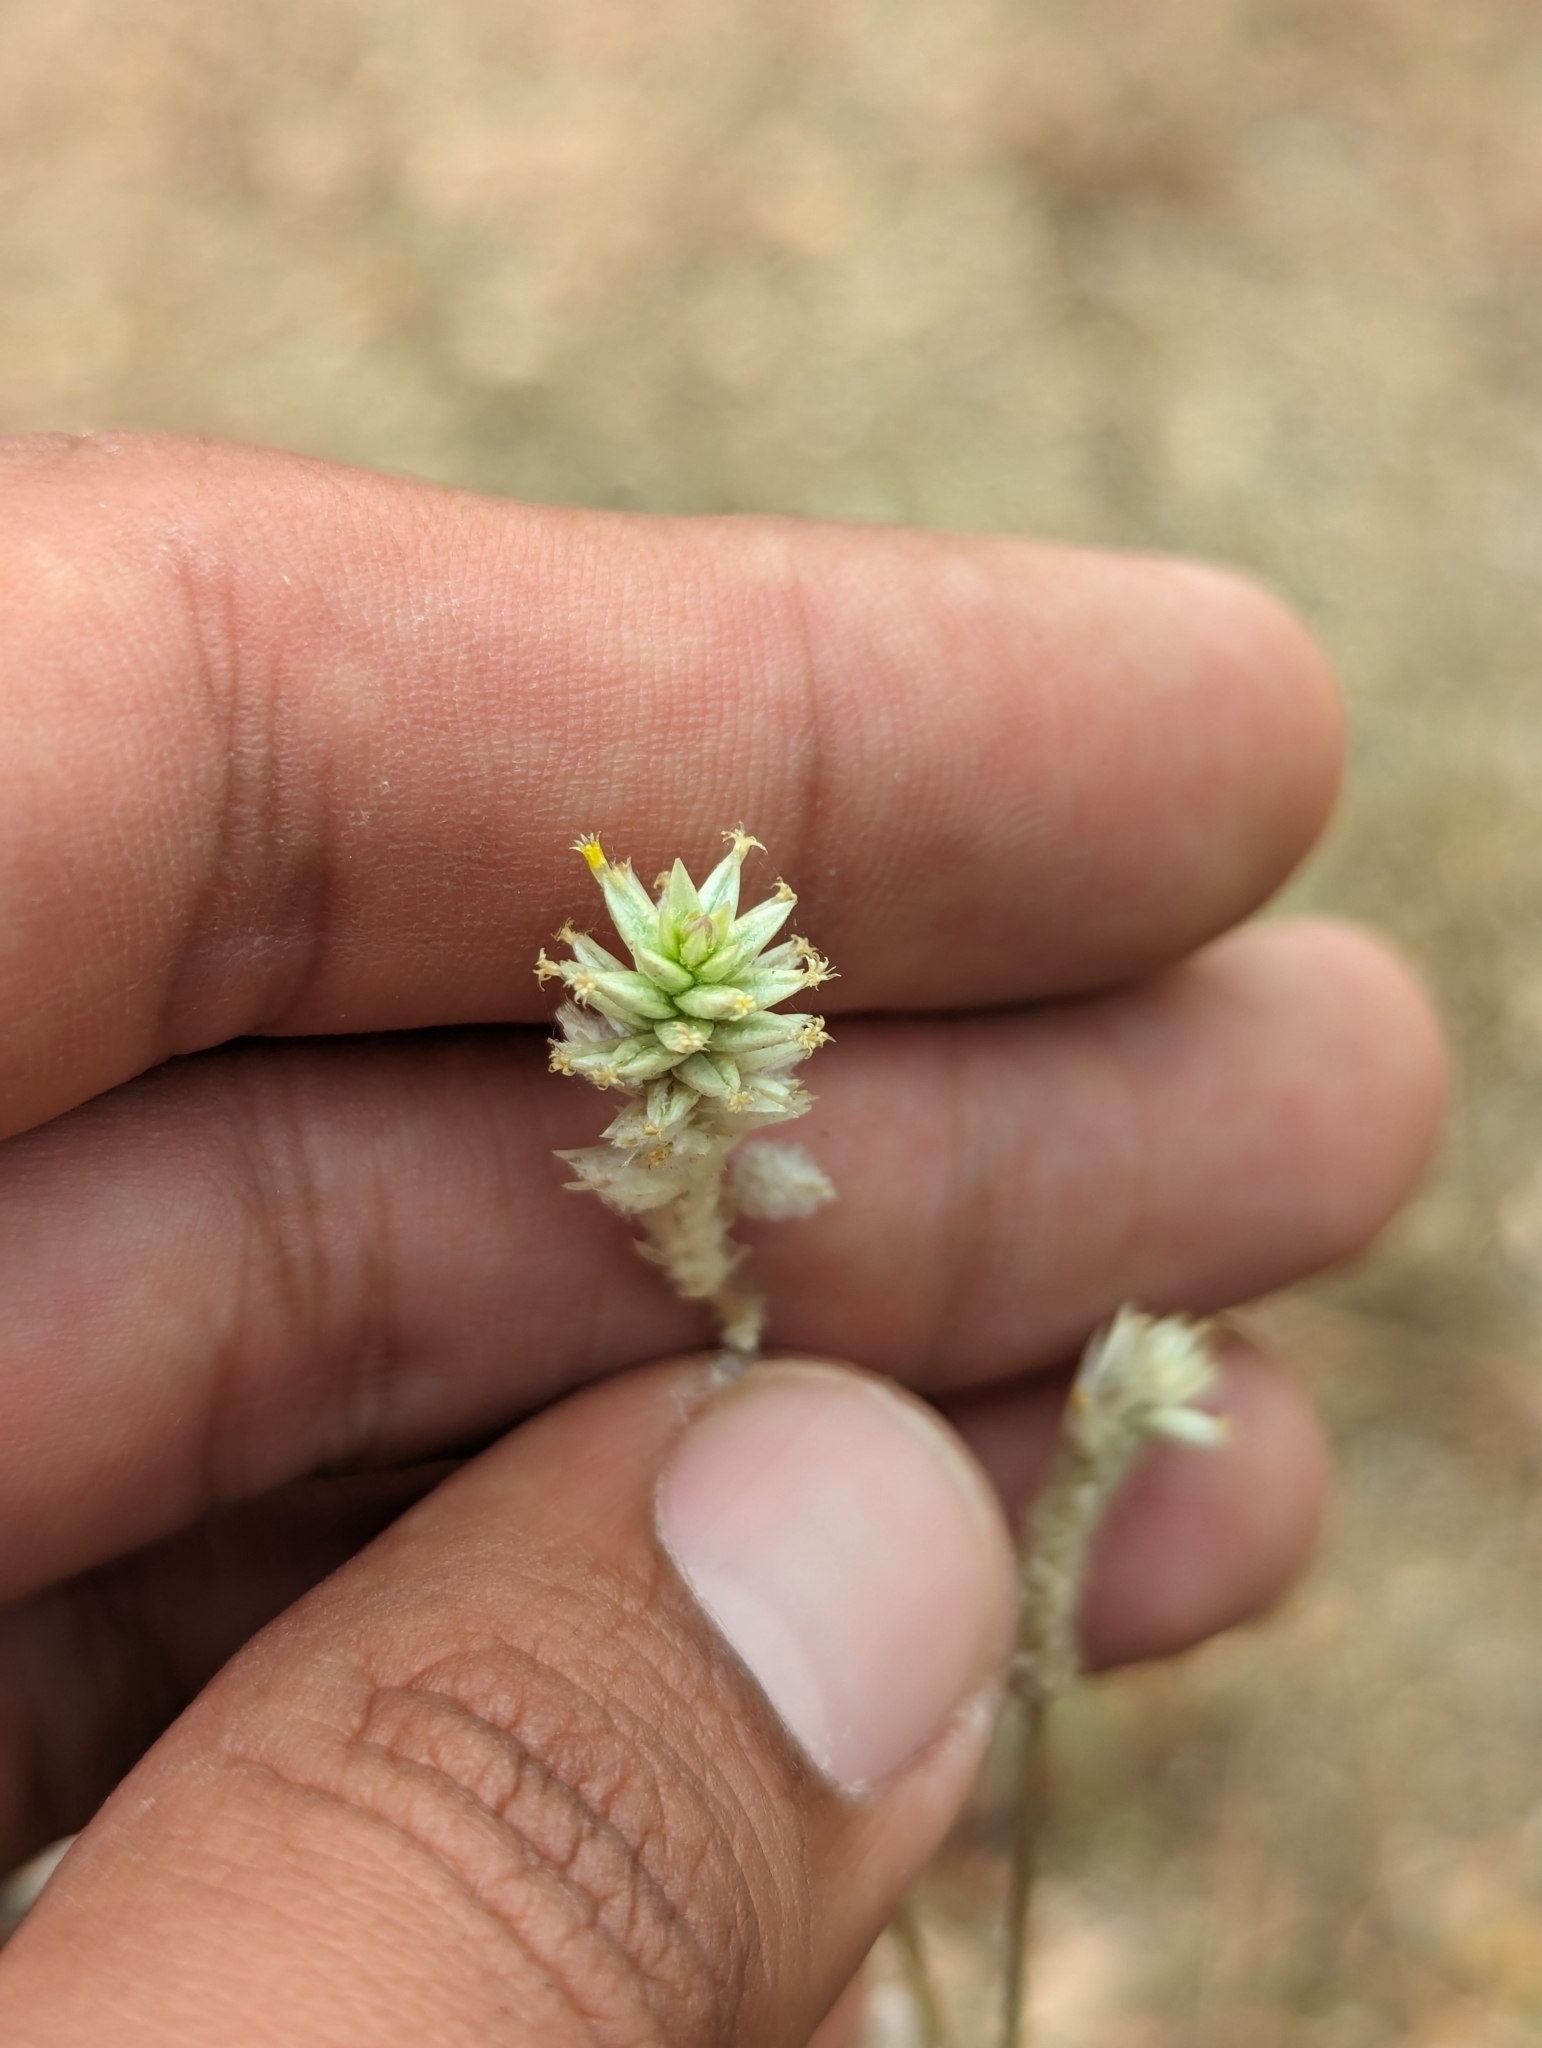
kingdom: Plantae
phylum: Tracheophyta
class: Magnoliopsida
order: Caryophyllales
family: Amaranthaceae
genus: Gomphrena
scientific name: Gomphrena sonorae
